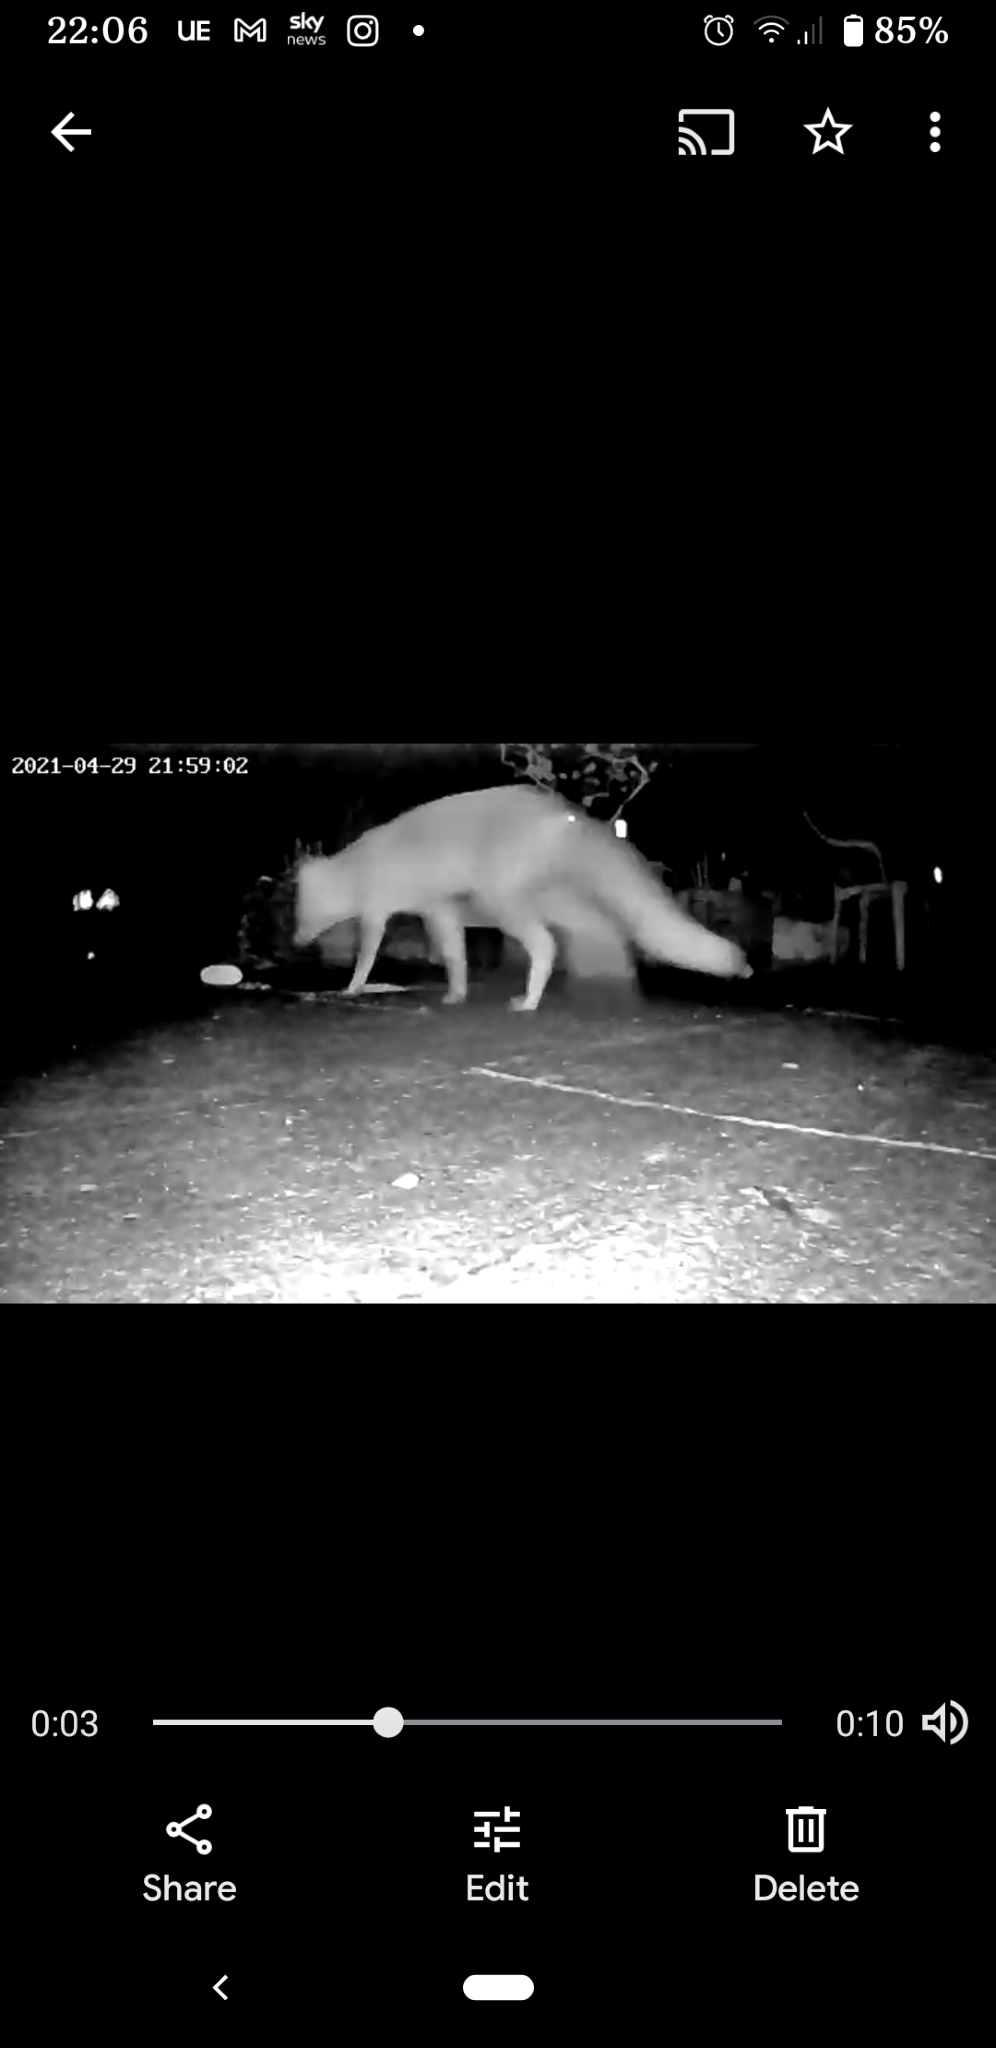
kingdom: Animalia
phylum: Chordata
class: Mammalia
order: Carnivora
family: Canidae
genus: Vulpes
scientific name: Vulpes vulpes
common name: Red fox
